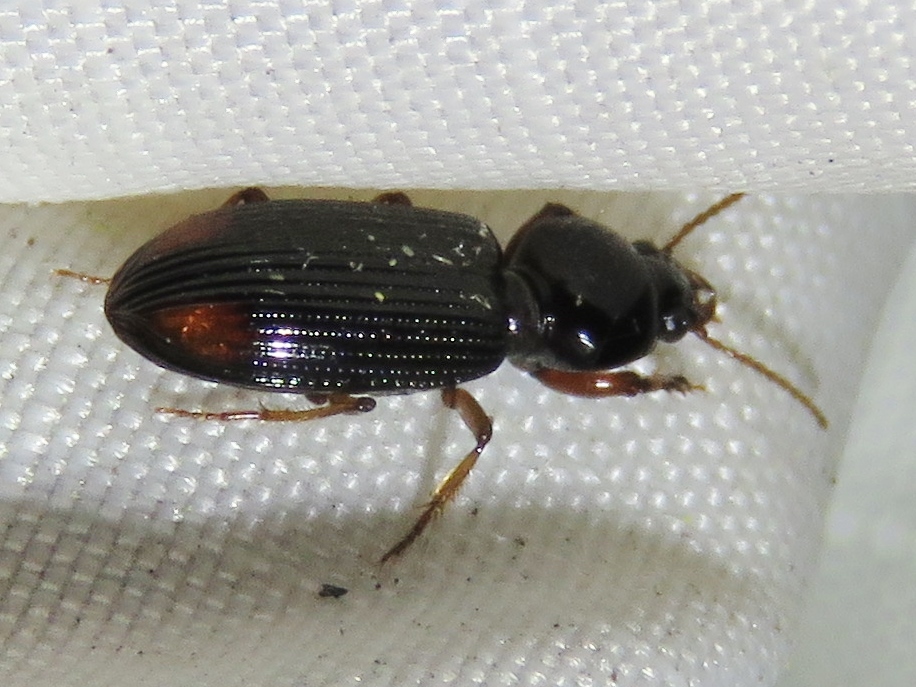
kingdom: Animalia
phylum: Arthropoda
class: Insecta
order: Coleoptera
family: Carabidae
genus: Aspidoglossa
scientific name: Aspidoglossa subangulata
